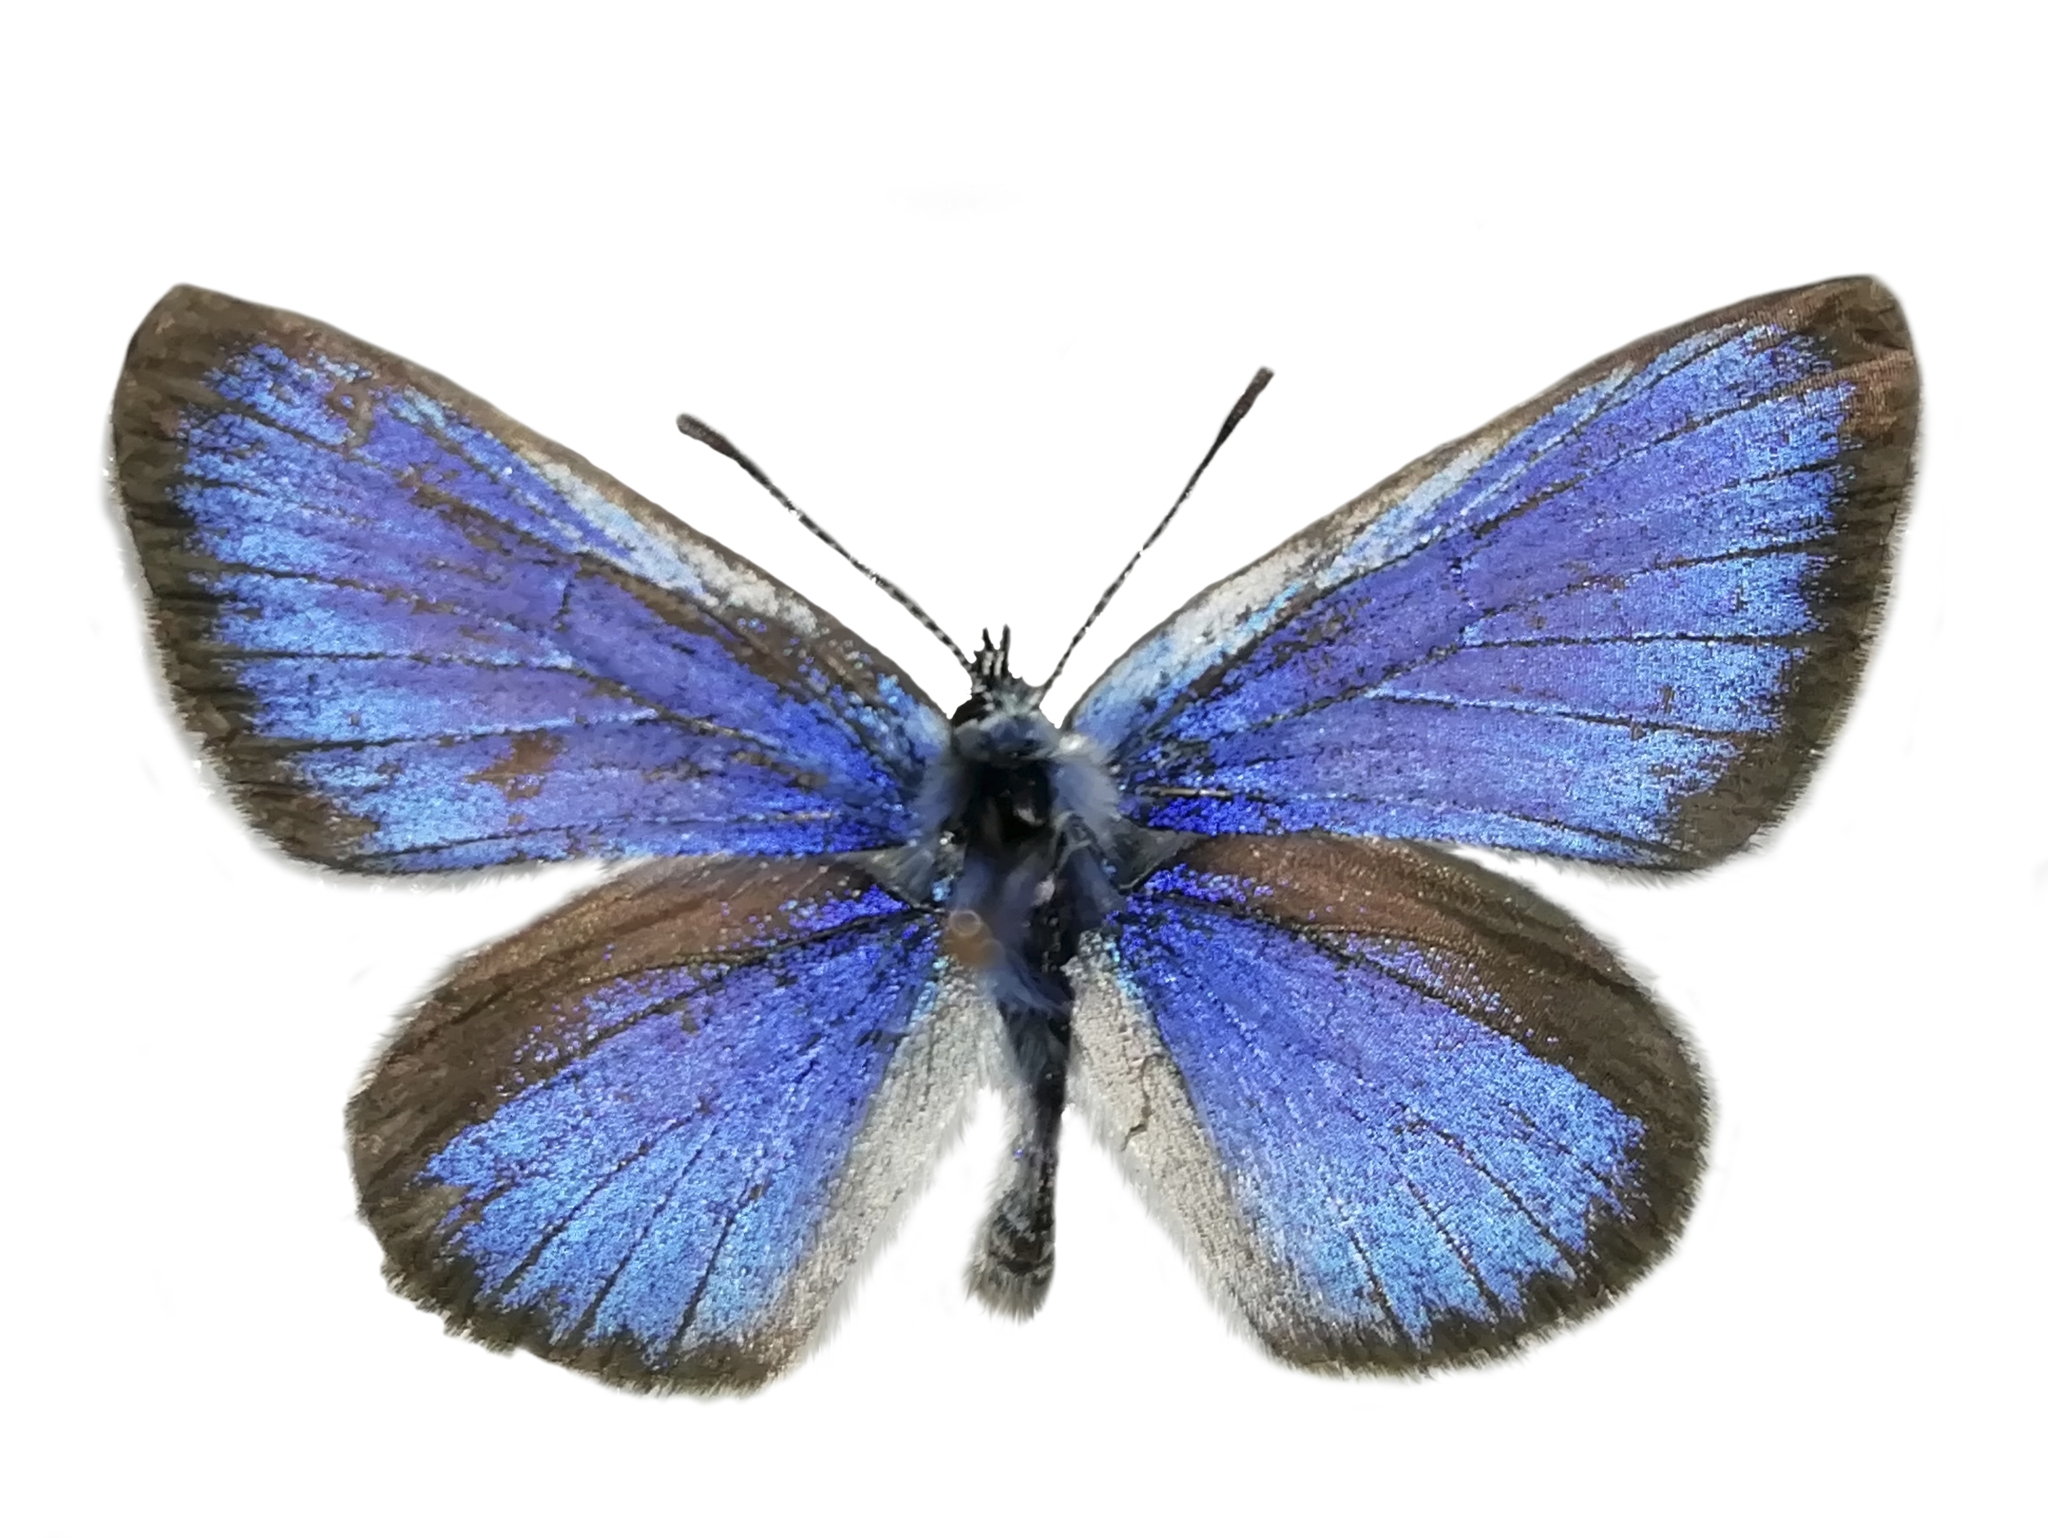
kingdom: Animalia
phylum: Arthropoda
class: Insecta
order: Lepidoptera
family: Lycaenidae
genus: Glaucopsyche
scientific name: Glaucopsyche alexis
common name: Green-underside blue
